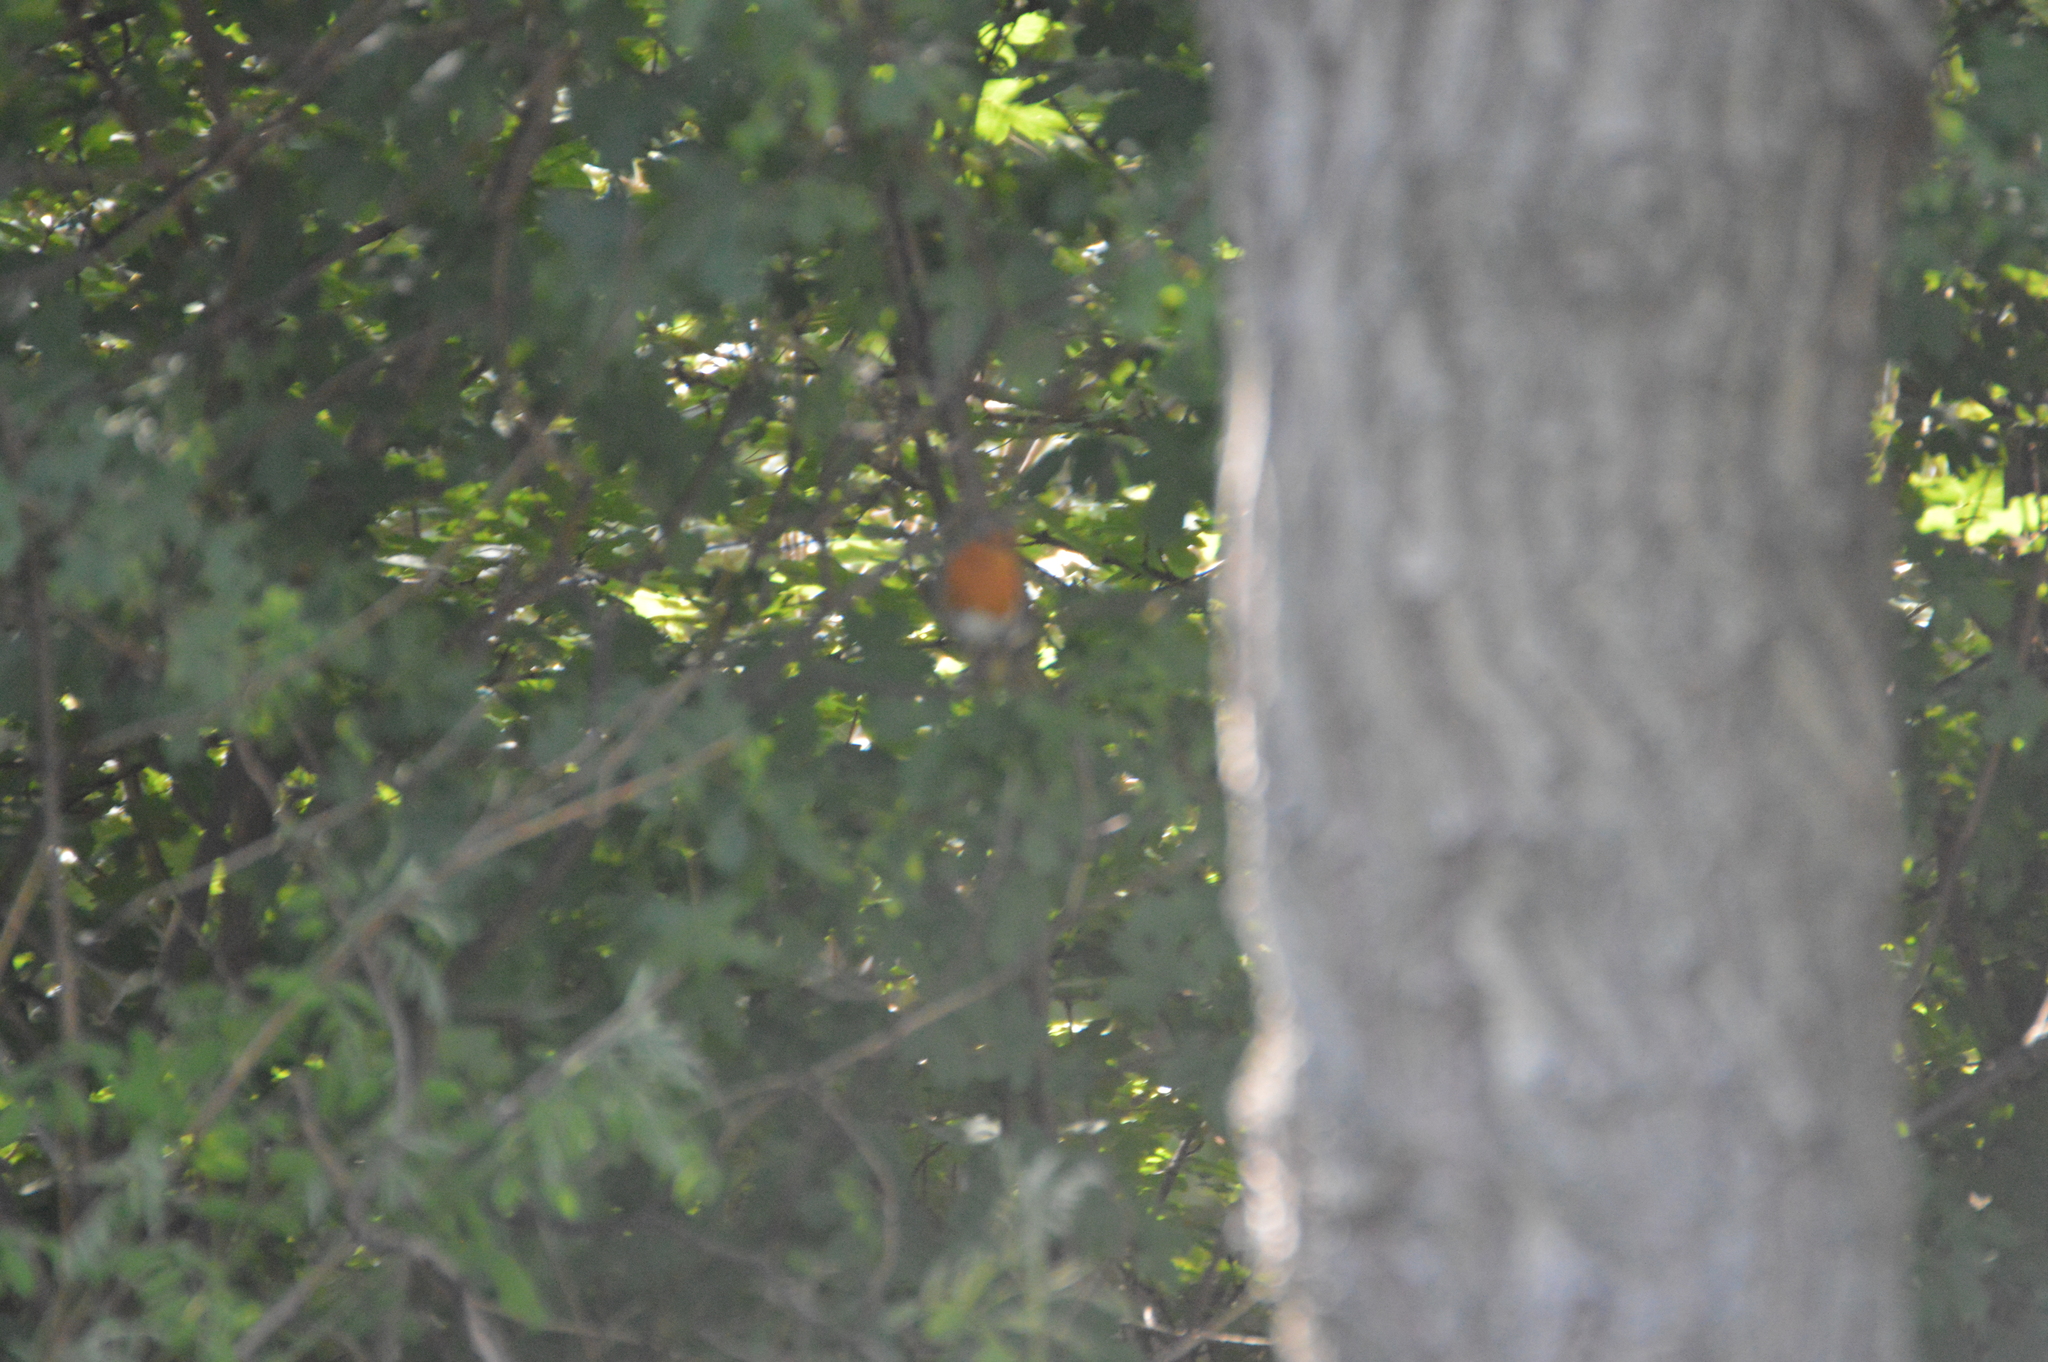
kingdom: Animalia
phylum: Chordata
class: Aves
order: Passeriformes
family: Muscicapidae
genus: Erithacus
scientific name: Erithacus rubecula
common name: European robin
